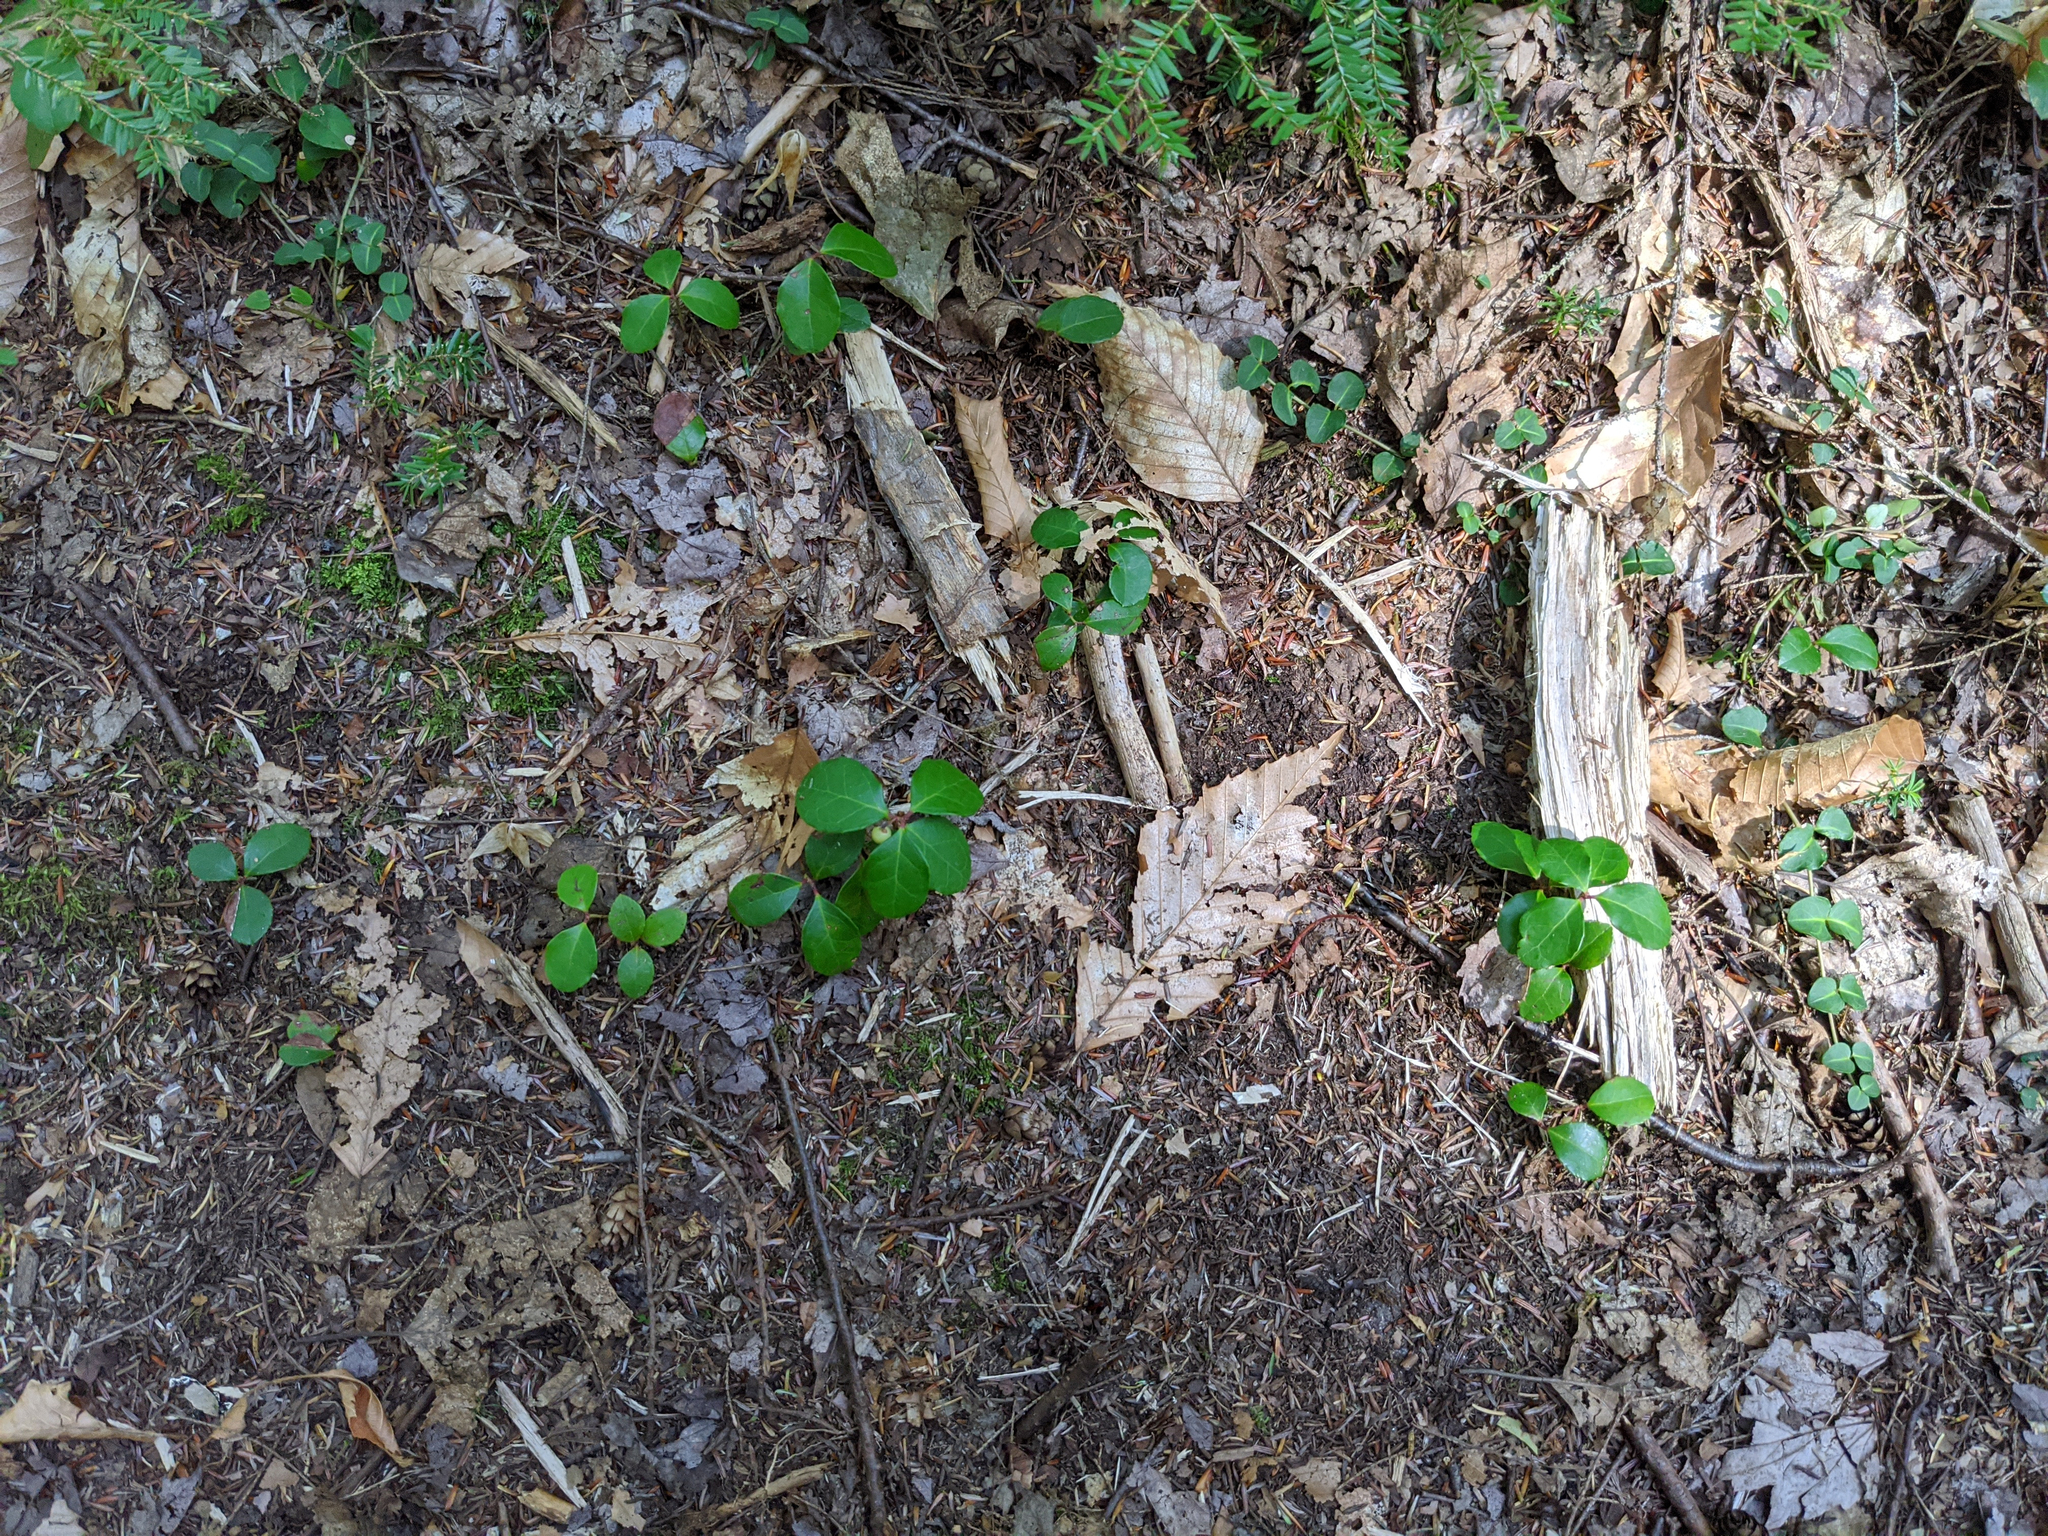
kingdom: Plantae
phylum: Tracheophyta
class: Magnoliopsida
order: Ericales
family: Ericaceae
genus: Gaultheria
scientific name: Gaultheria procumbens
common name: Checkerberry
